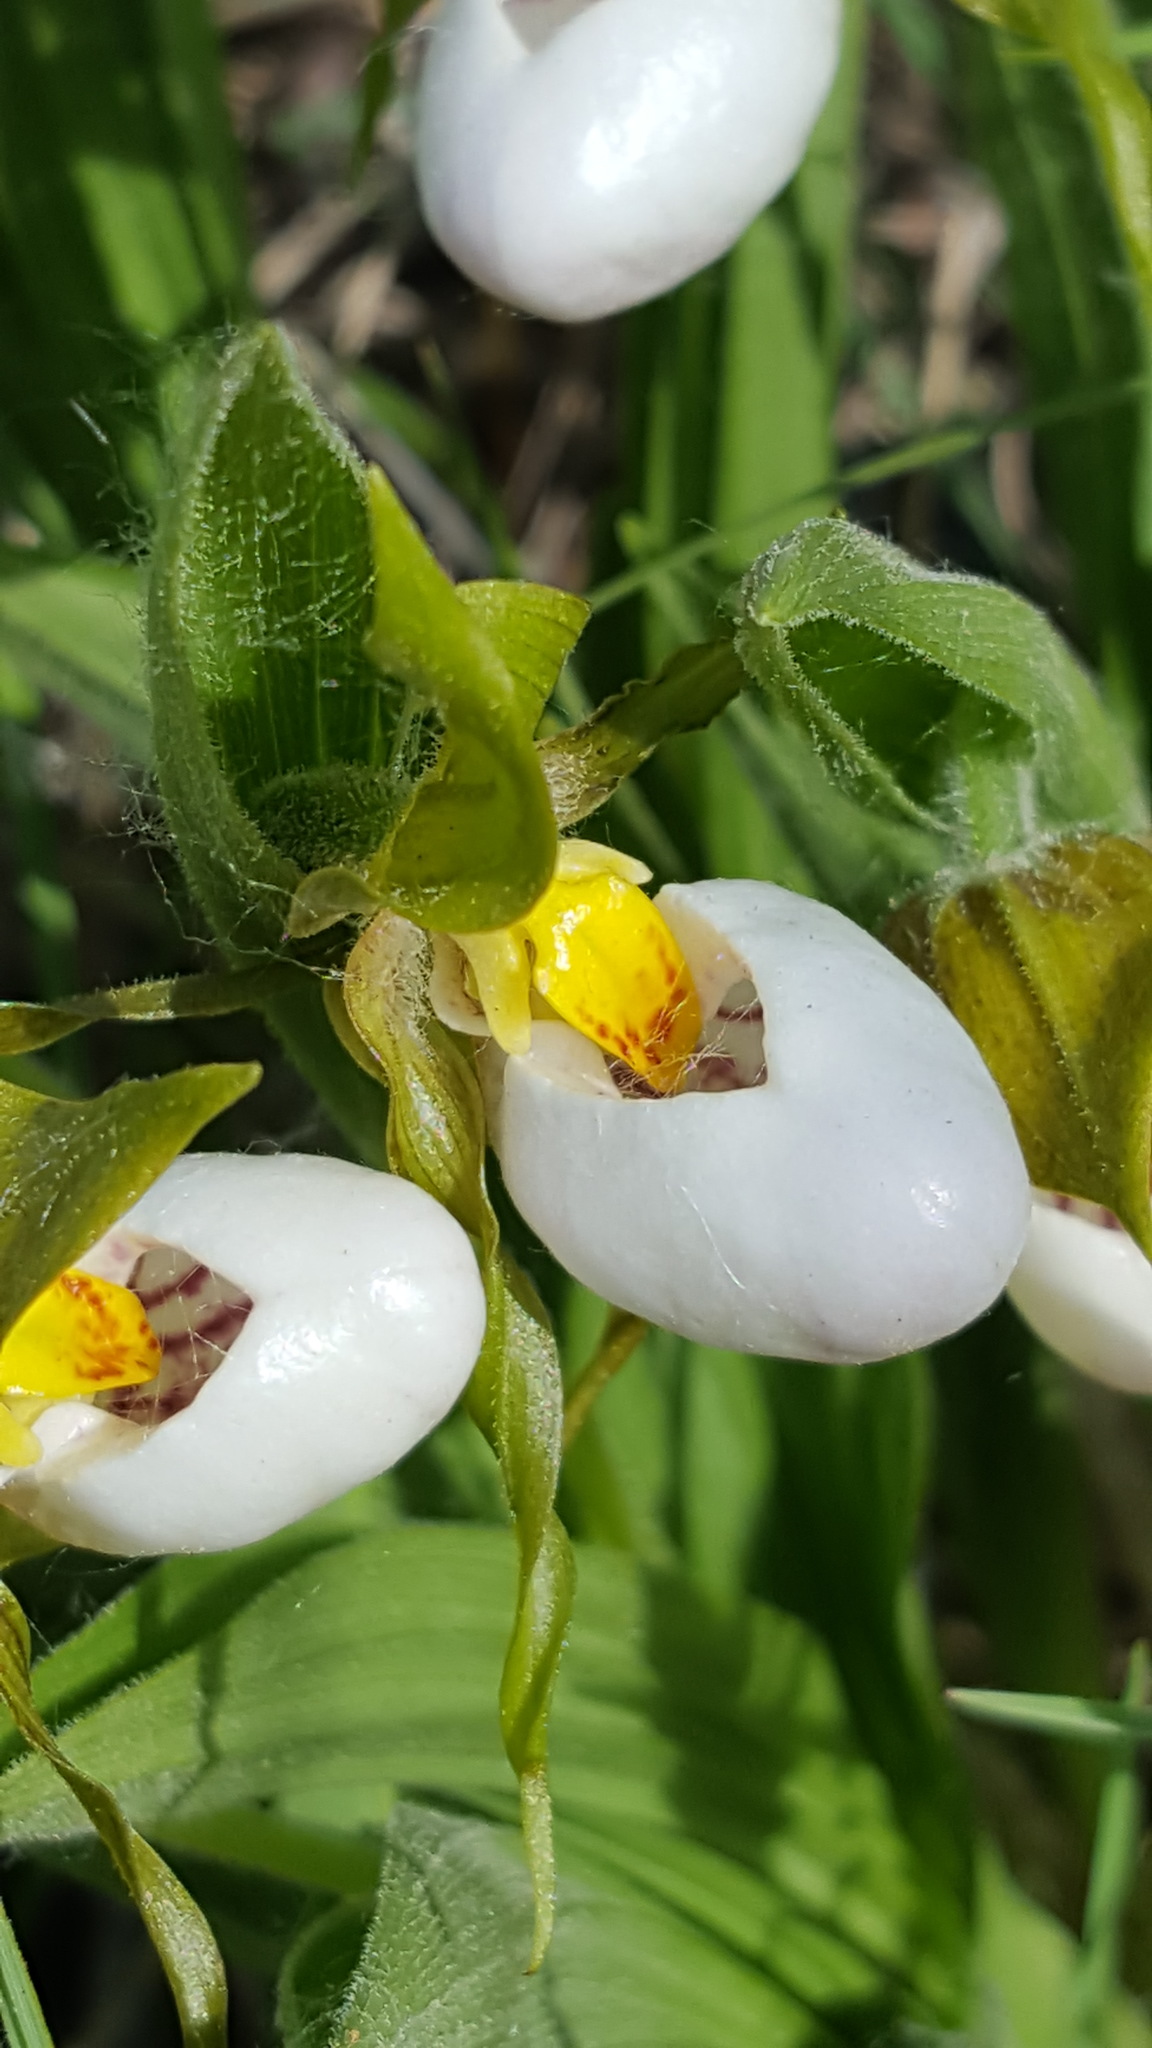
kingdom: Plantae
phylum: Tracheophyta
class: Liliopsida
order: Asparagales
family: Orchidaceae
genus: Cypripedium
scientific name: Cypripedium candidum
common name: White lady's-slipper
